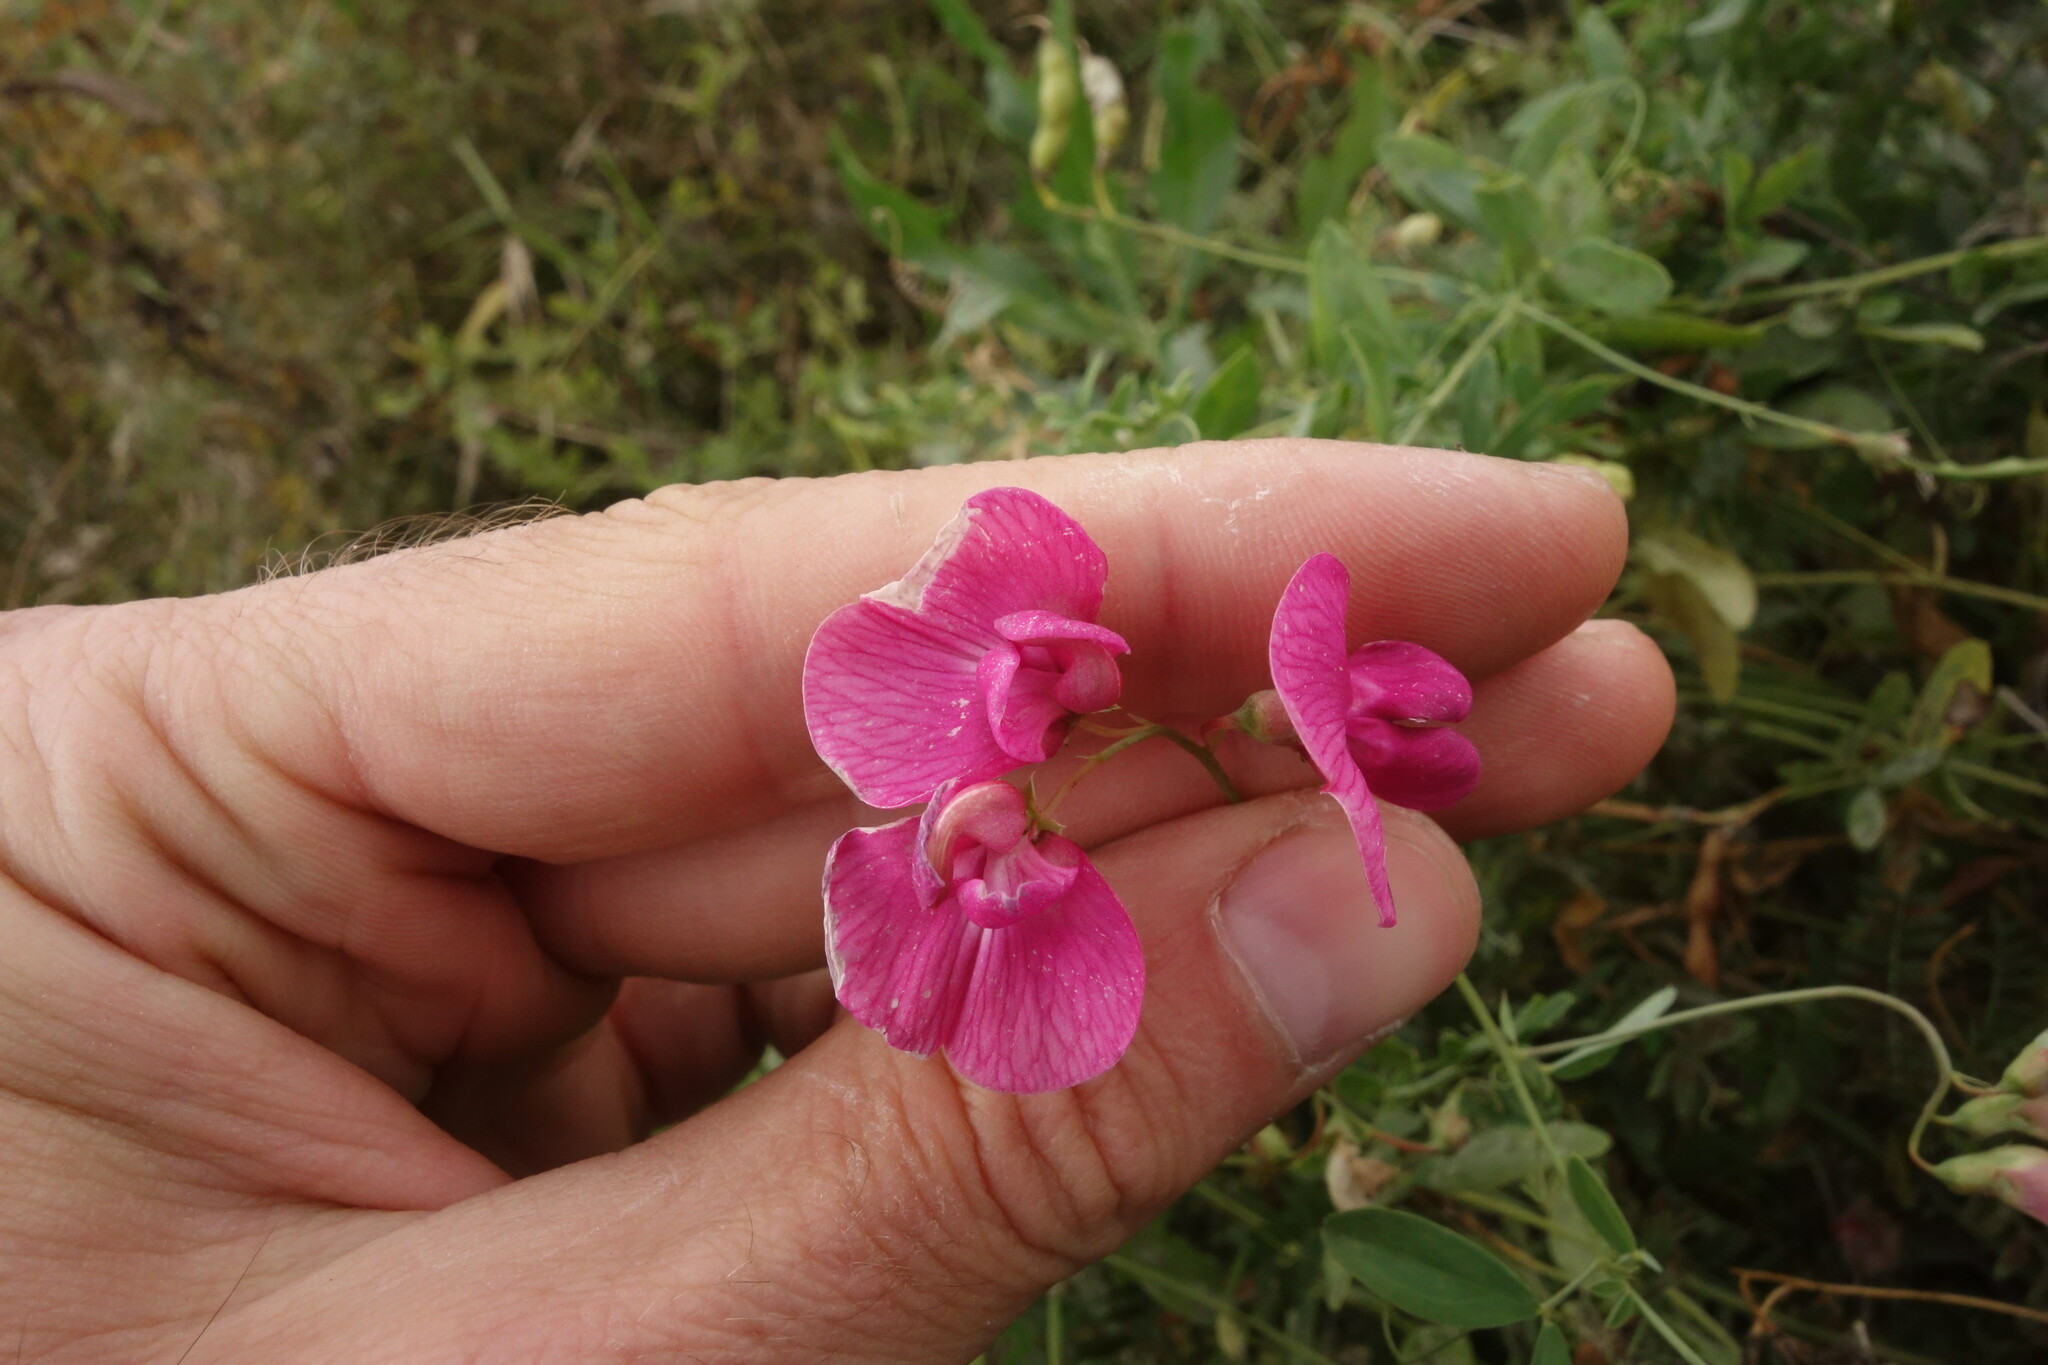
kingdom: Plantae
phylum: Tracheophyta
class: Magnoliopsida
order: Fabales
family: Fabaceae
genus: Lathyrus
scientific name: Lathyrus tuberosus
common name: Tuberous pea
